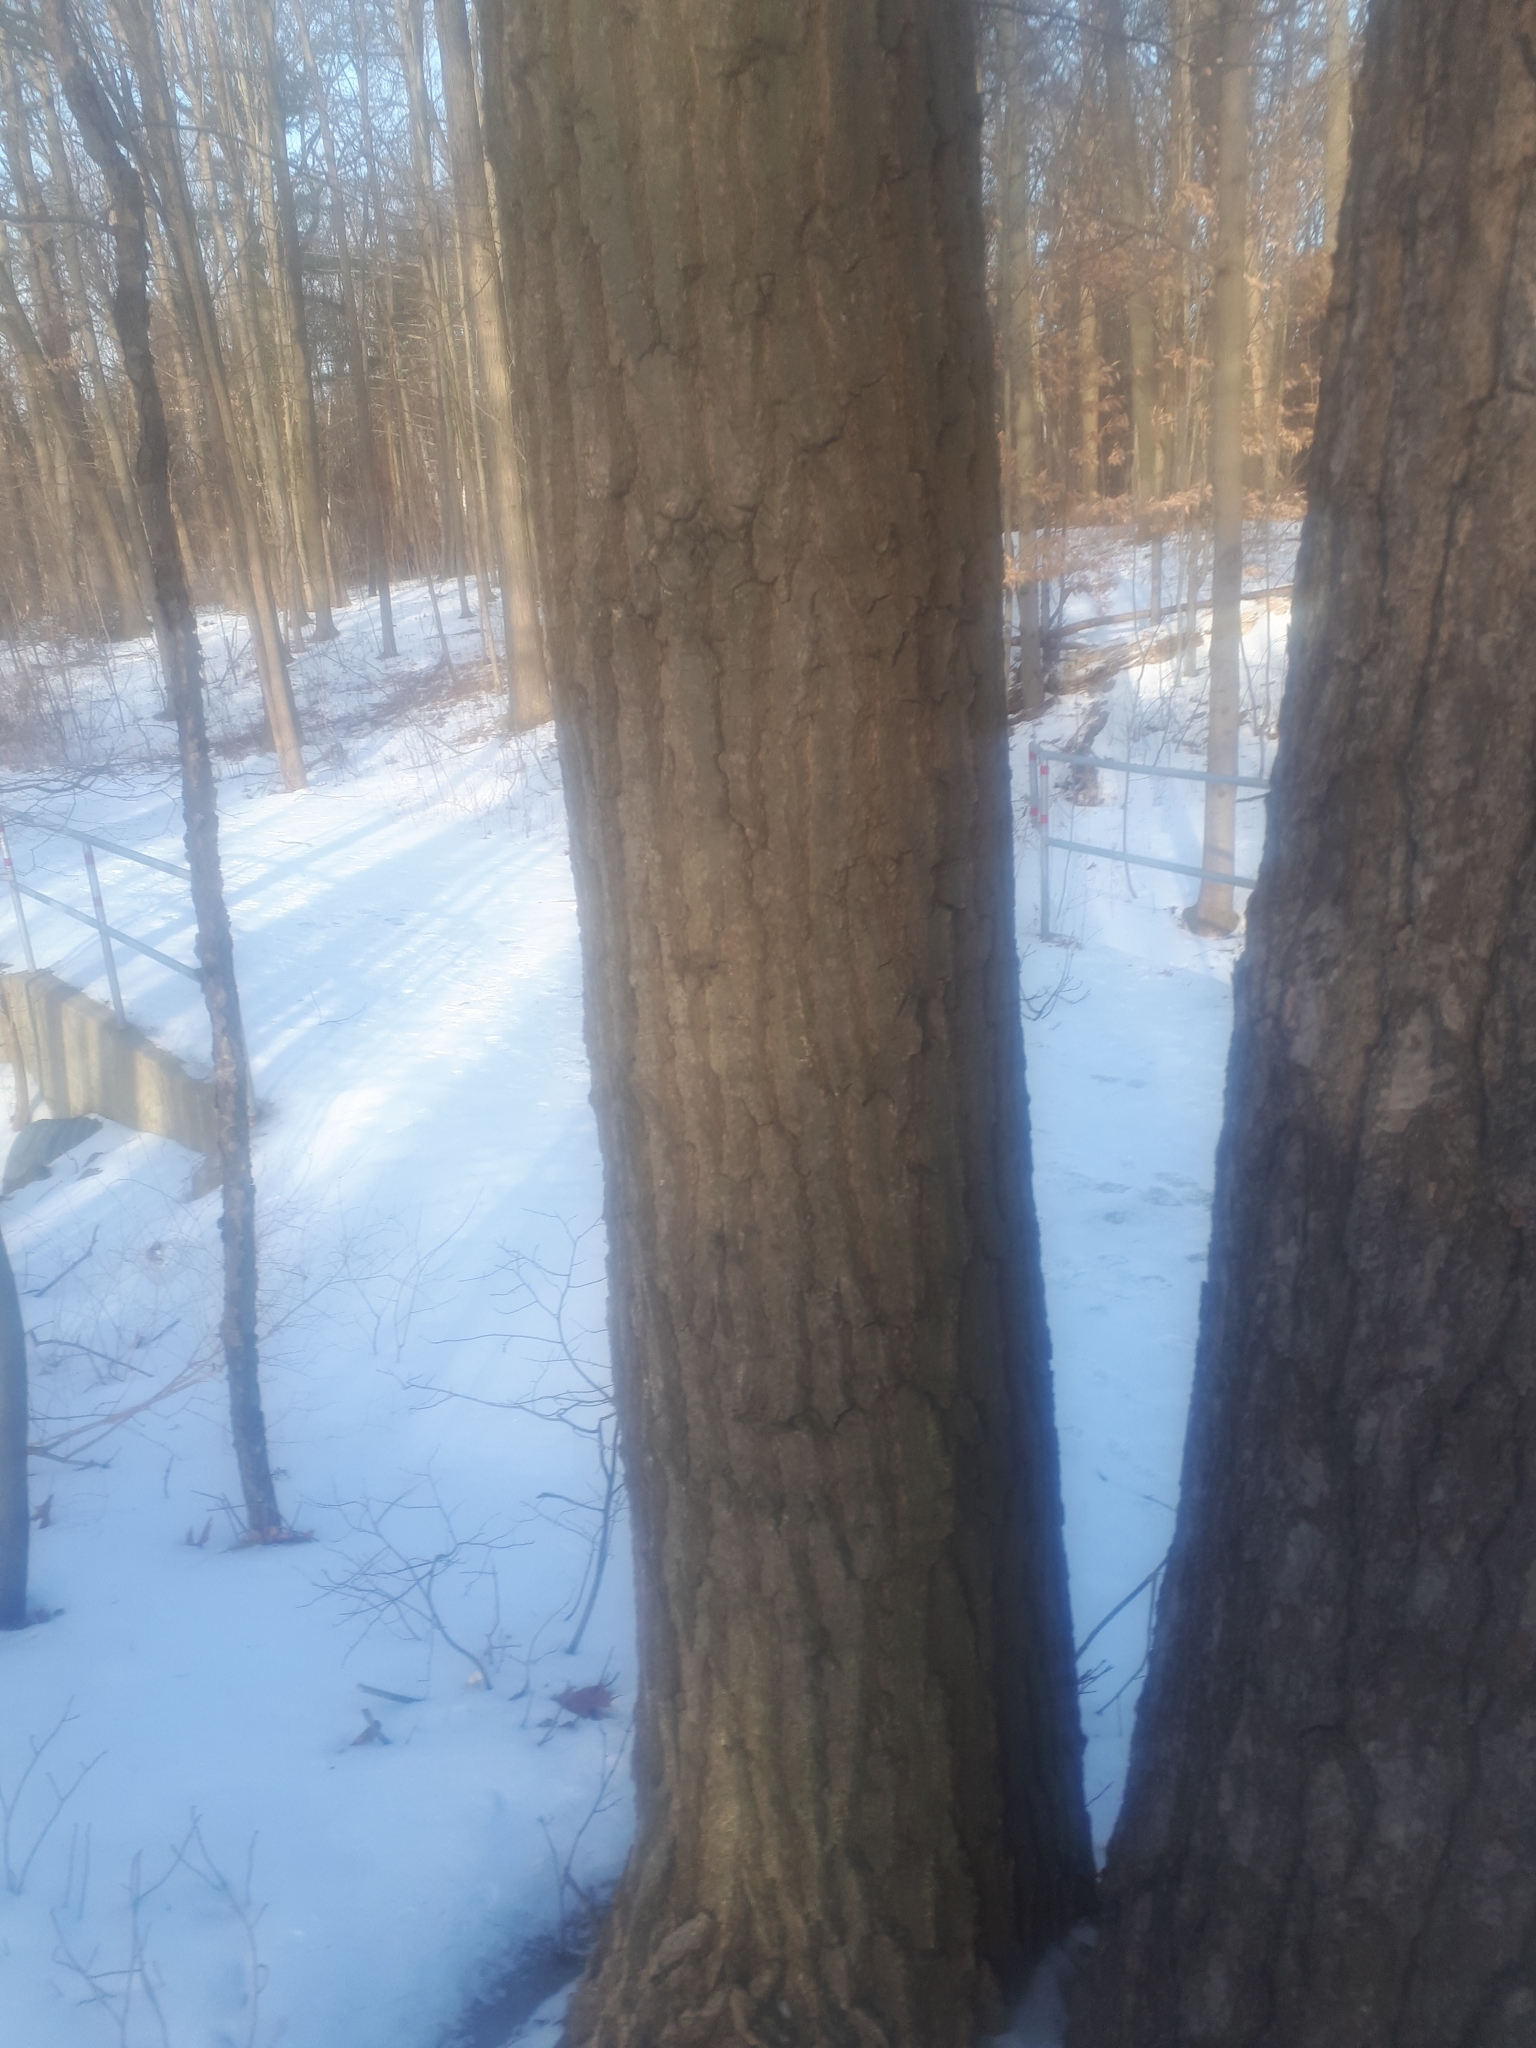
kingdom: Plantae
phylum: Tracheophyta
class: Magnoliopsida
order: Fagales
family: Fagaceae
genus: Quercus
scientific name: Quercus rubra
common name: Red oak
